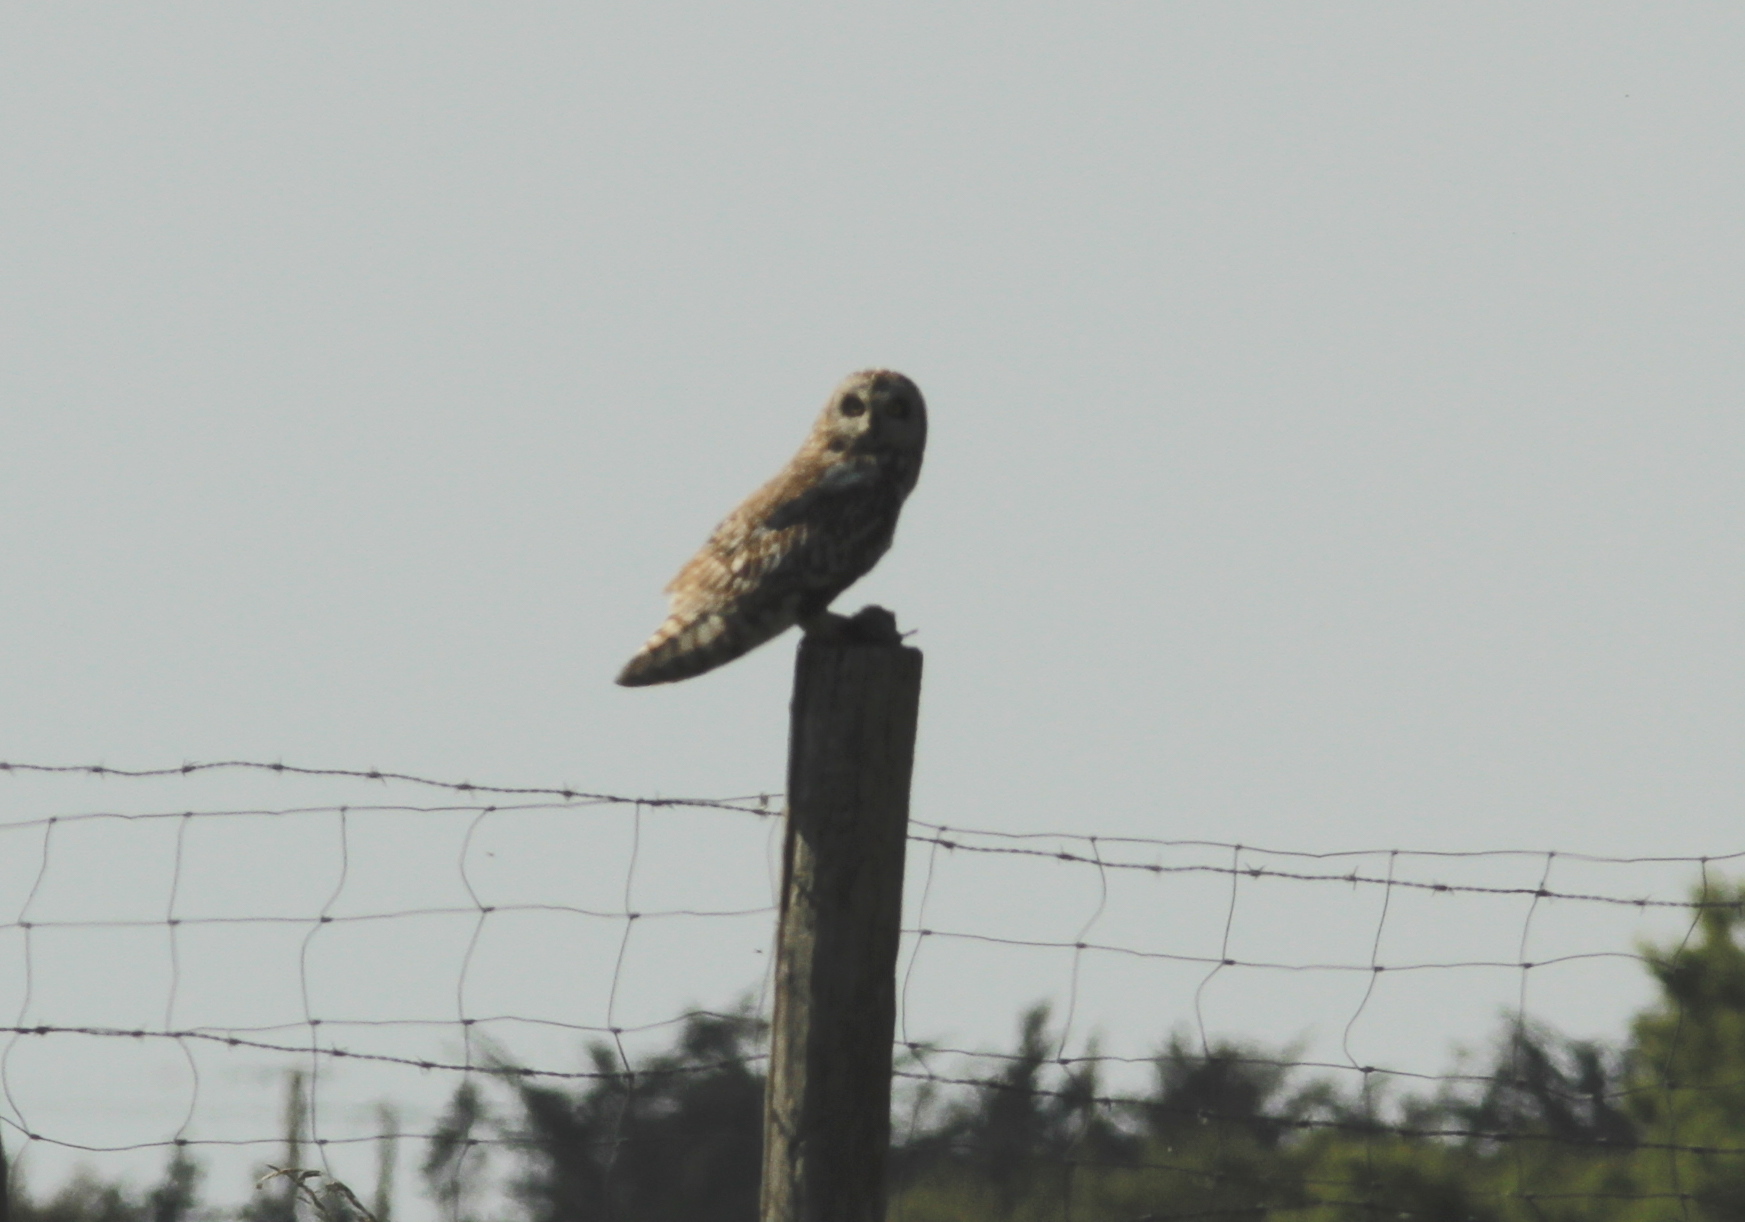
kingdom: Animalia
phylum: Chordata
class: Aves
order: Strigiformes
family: Strigidae
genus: Asio
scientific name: Asio flammeus
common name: Short-eared owl
